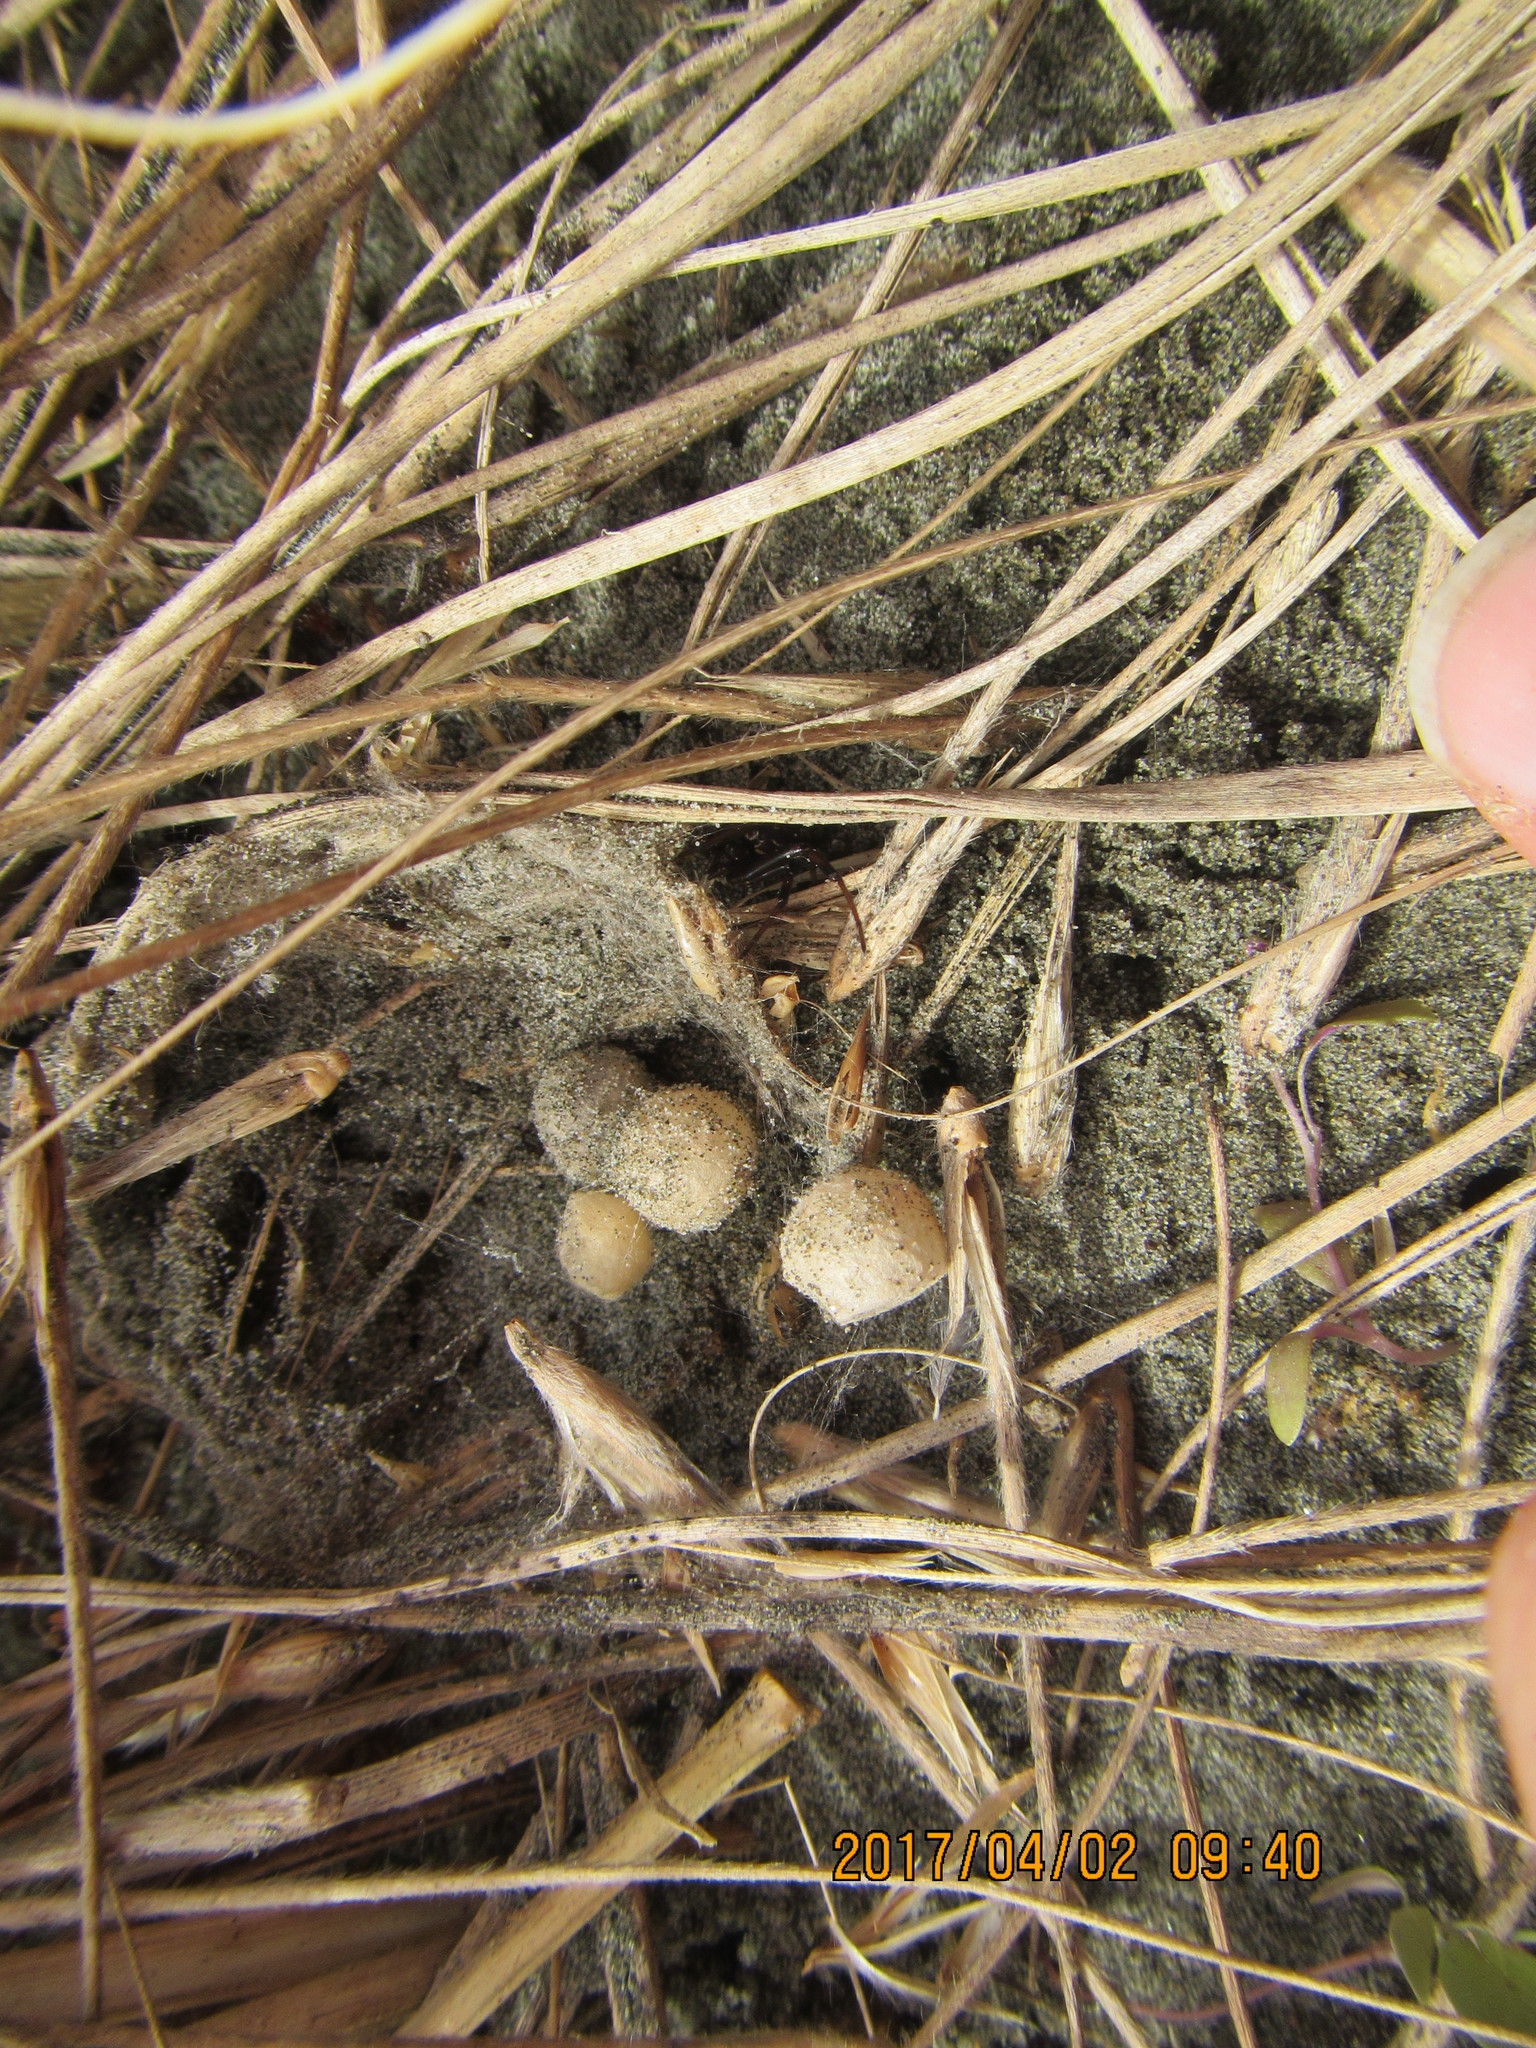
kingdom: Animalia
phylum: Arthropoda
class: Arachnida
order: Araneae
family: Theridiidae
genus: Latrodectus
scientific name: Latrodectus katipo
